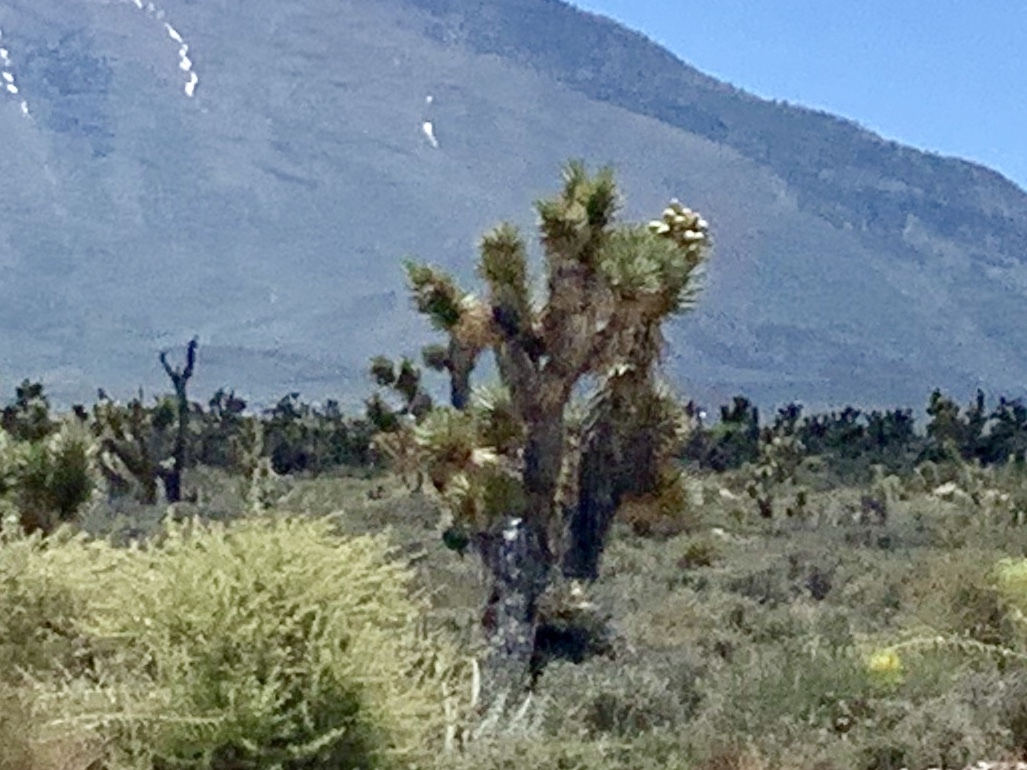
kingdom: Plantae
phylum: Tracheophyta
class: Liliopsida
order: Asparagales
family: Asparagaceae
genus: Yucca
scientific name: Yucca brevifolia
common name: Joshua tree
